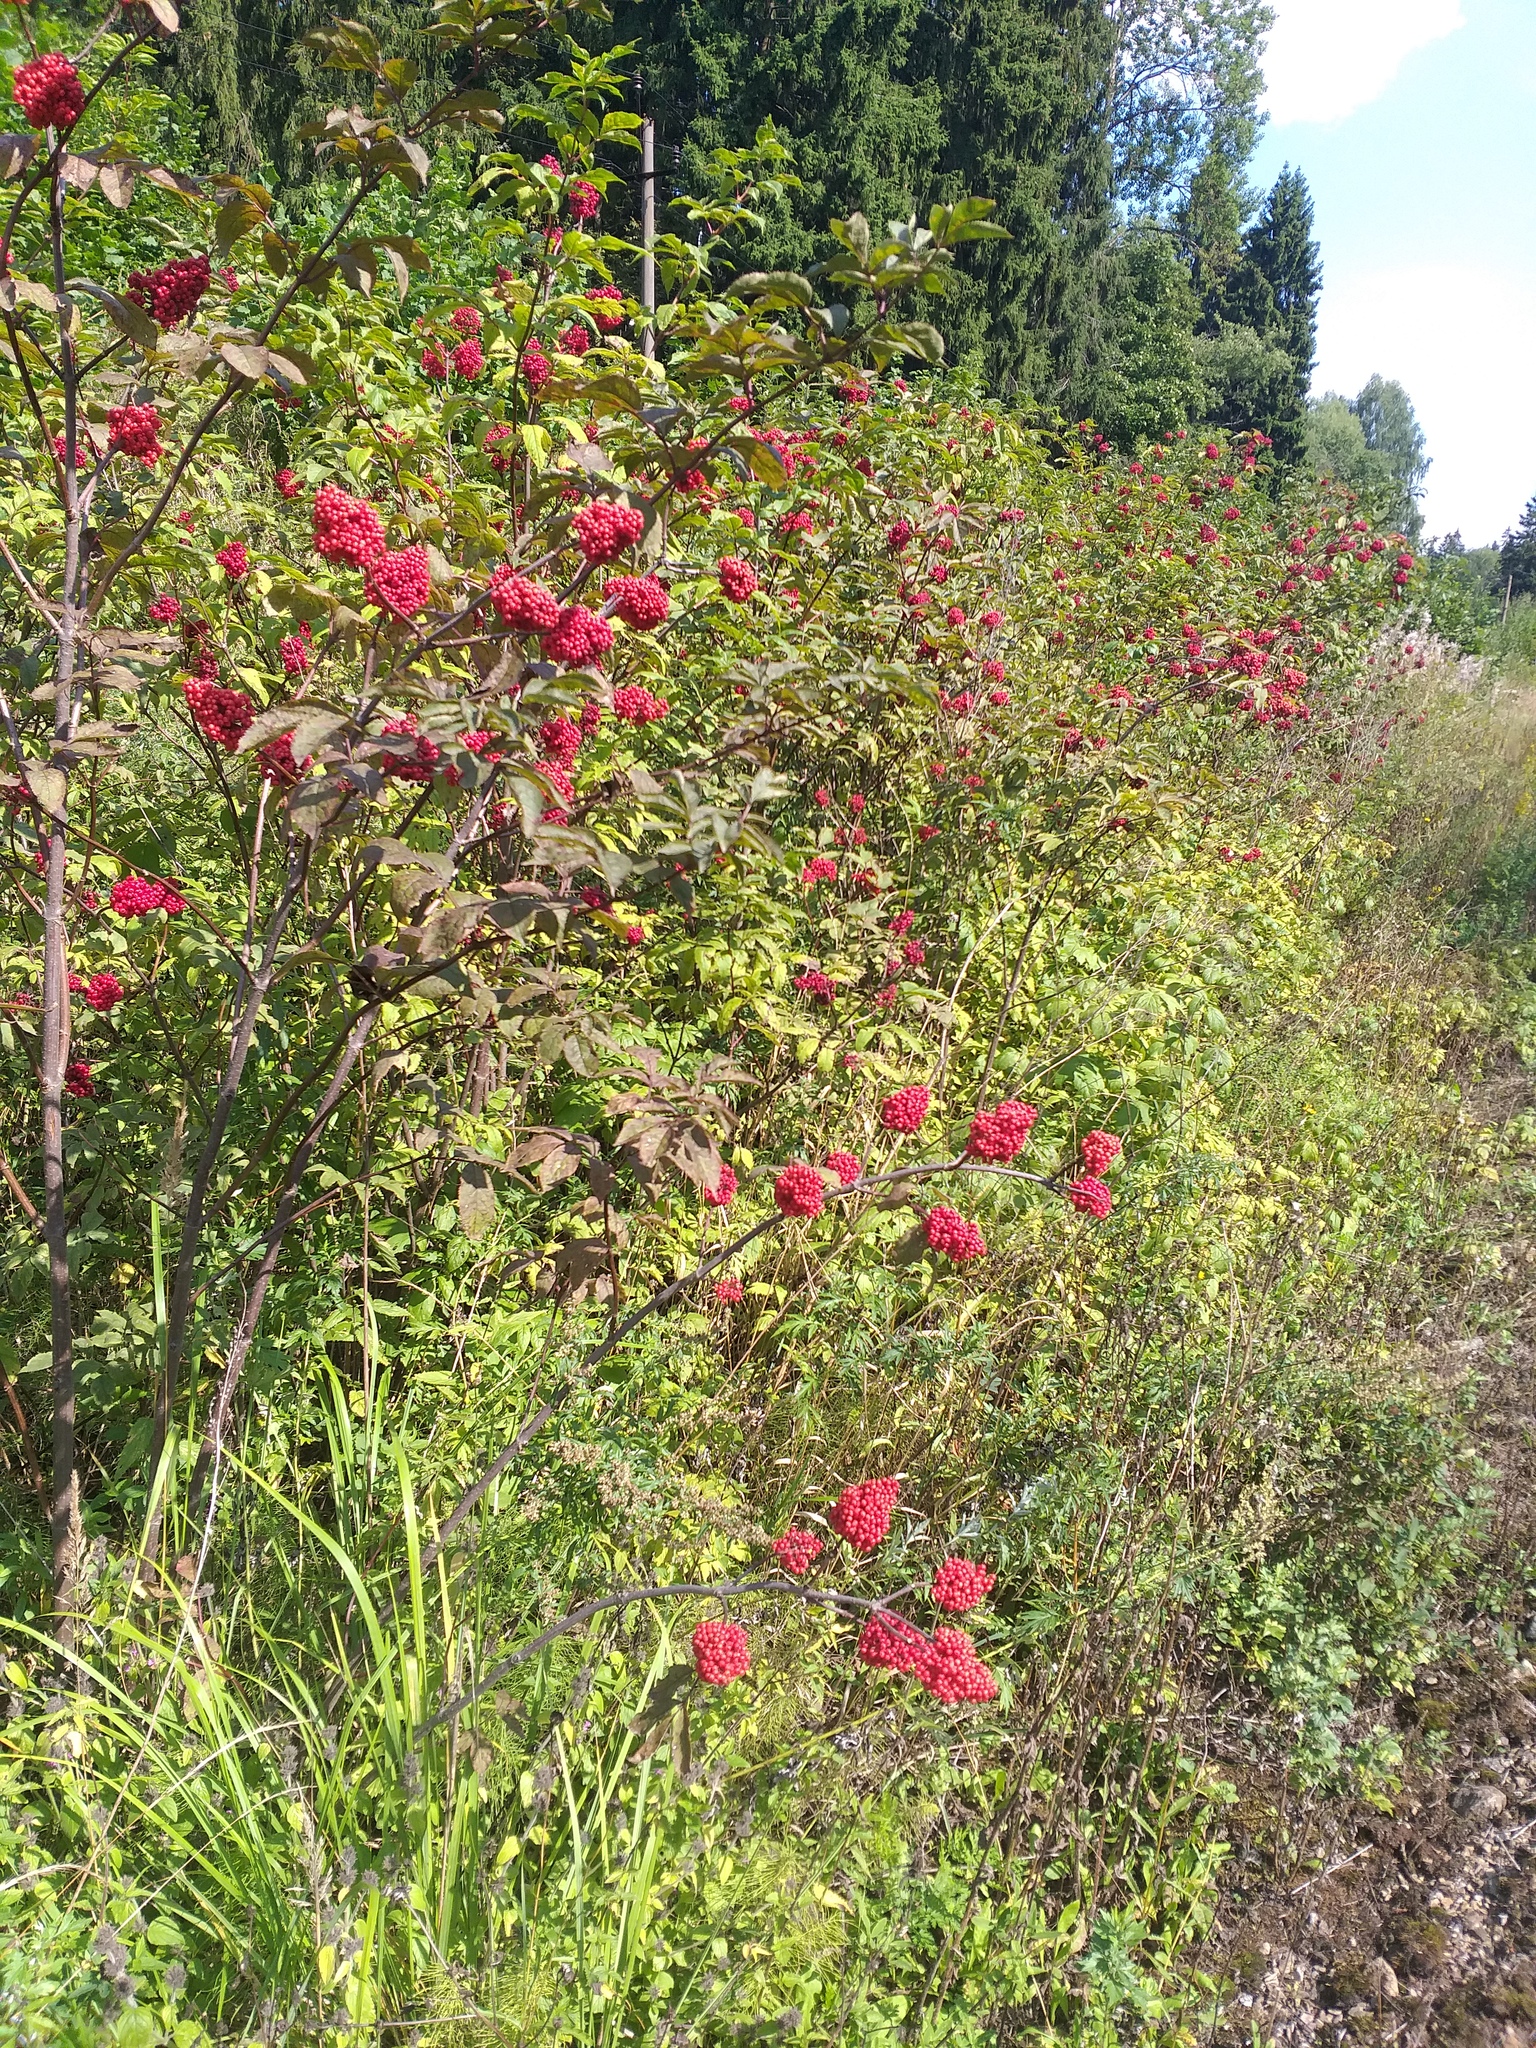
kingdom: Plantae
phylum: Tracheophyta
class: Magnoliopsida
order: Dipsacales
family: Viburnaceae
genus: Sambucus
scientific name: Sambucus racemosa
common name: Red-berried elder
